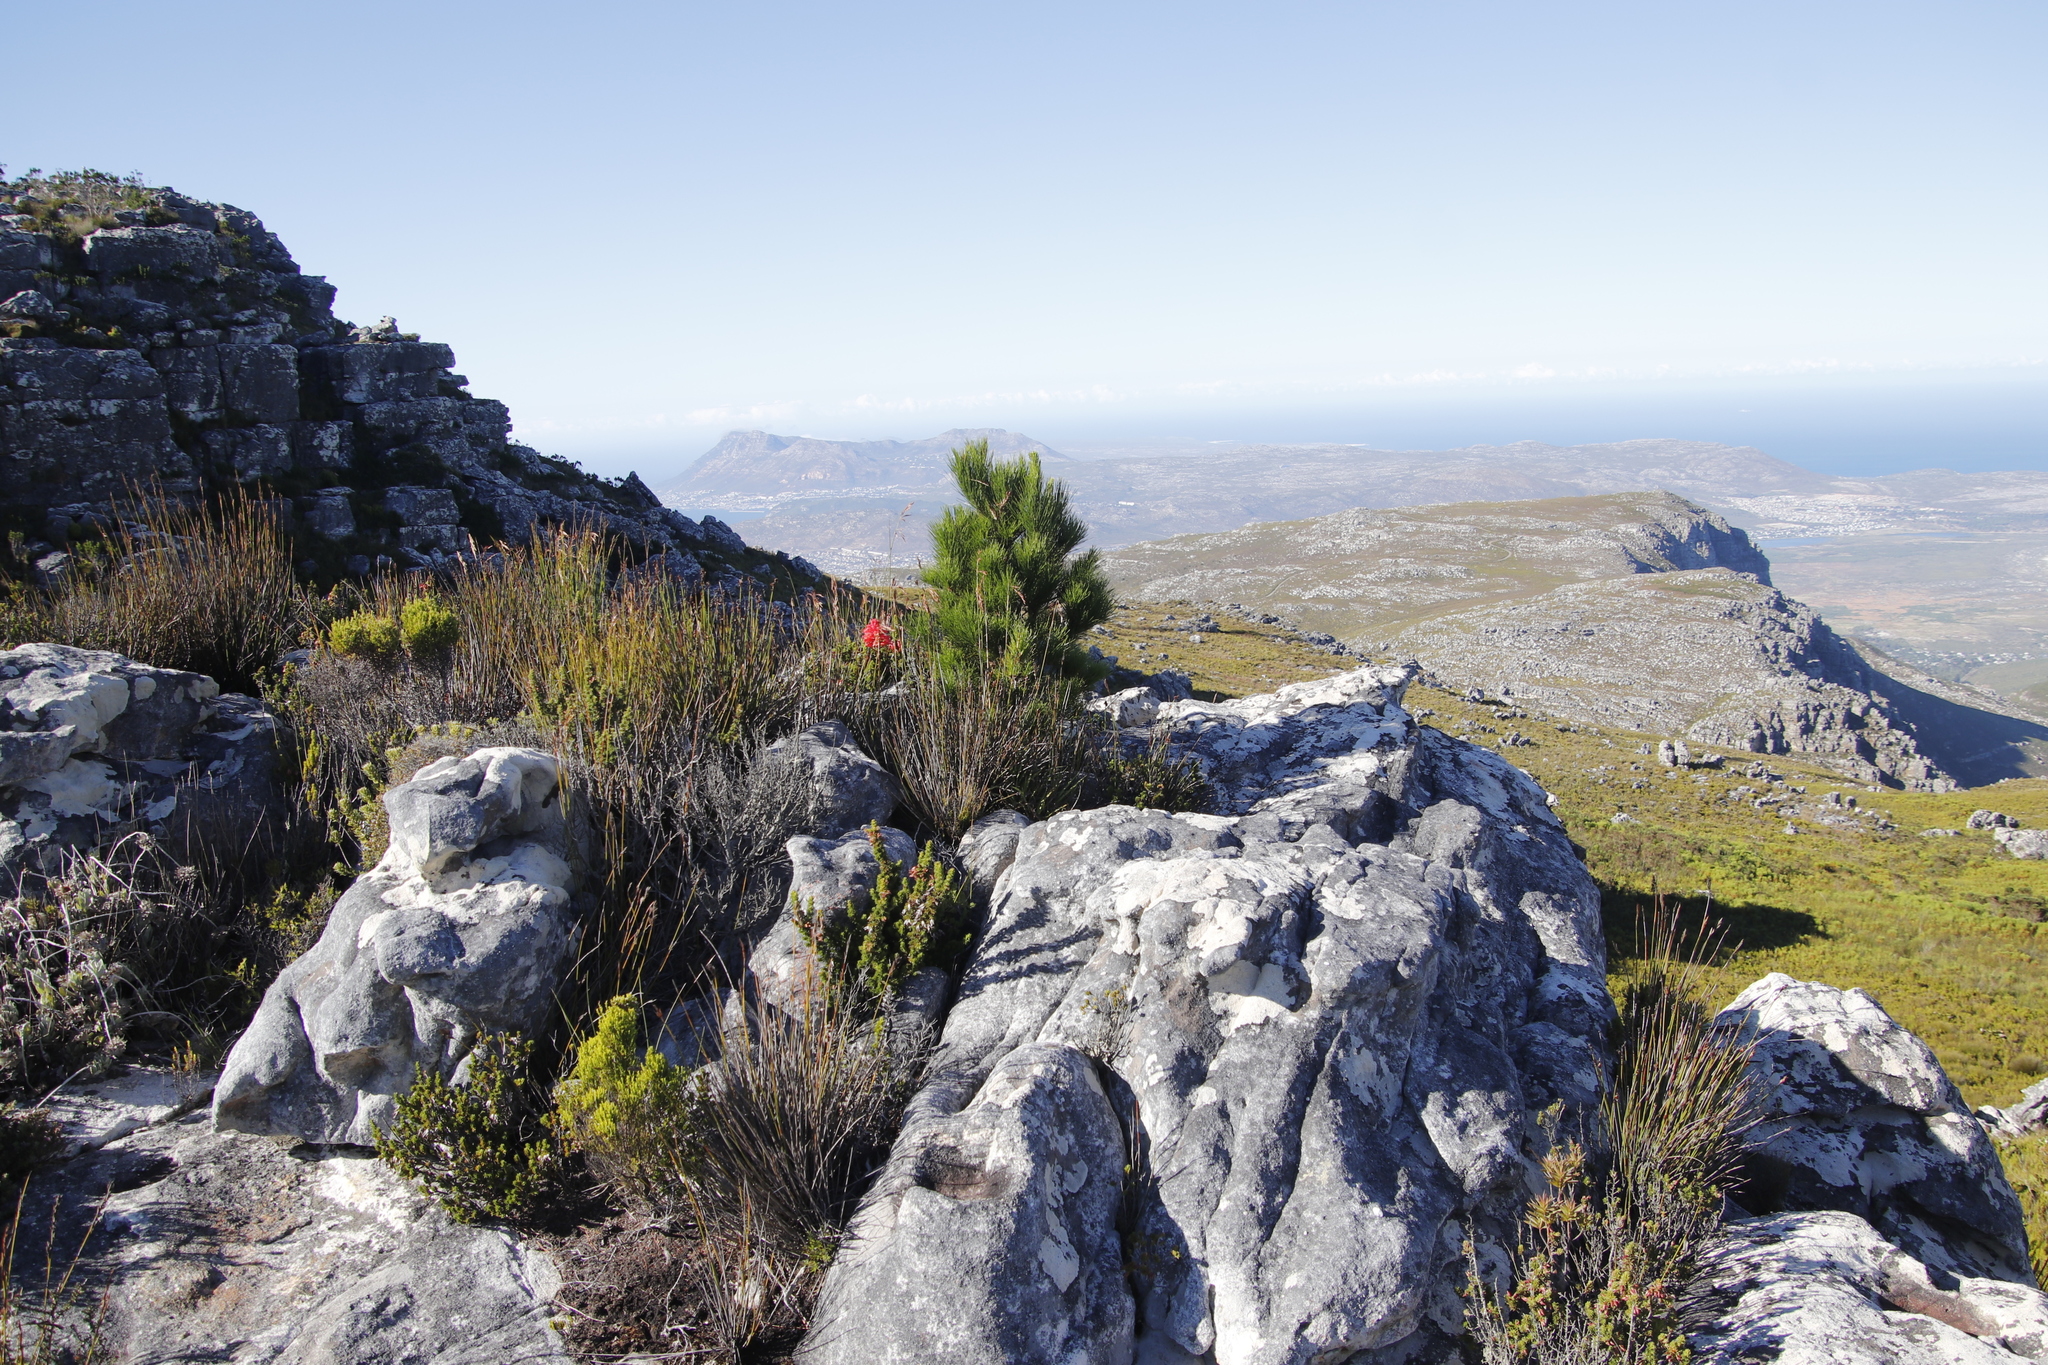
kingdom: Plantae
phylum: Tracheophyta
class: Liliopsida
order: Asparagales
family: Orchidaceae
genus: Disa
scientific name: Disa ferruginea
